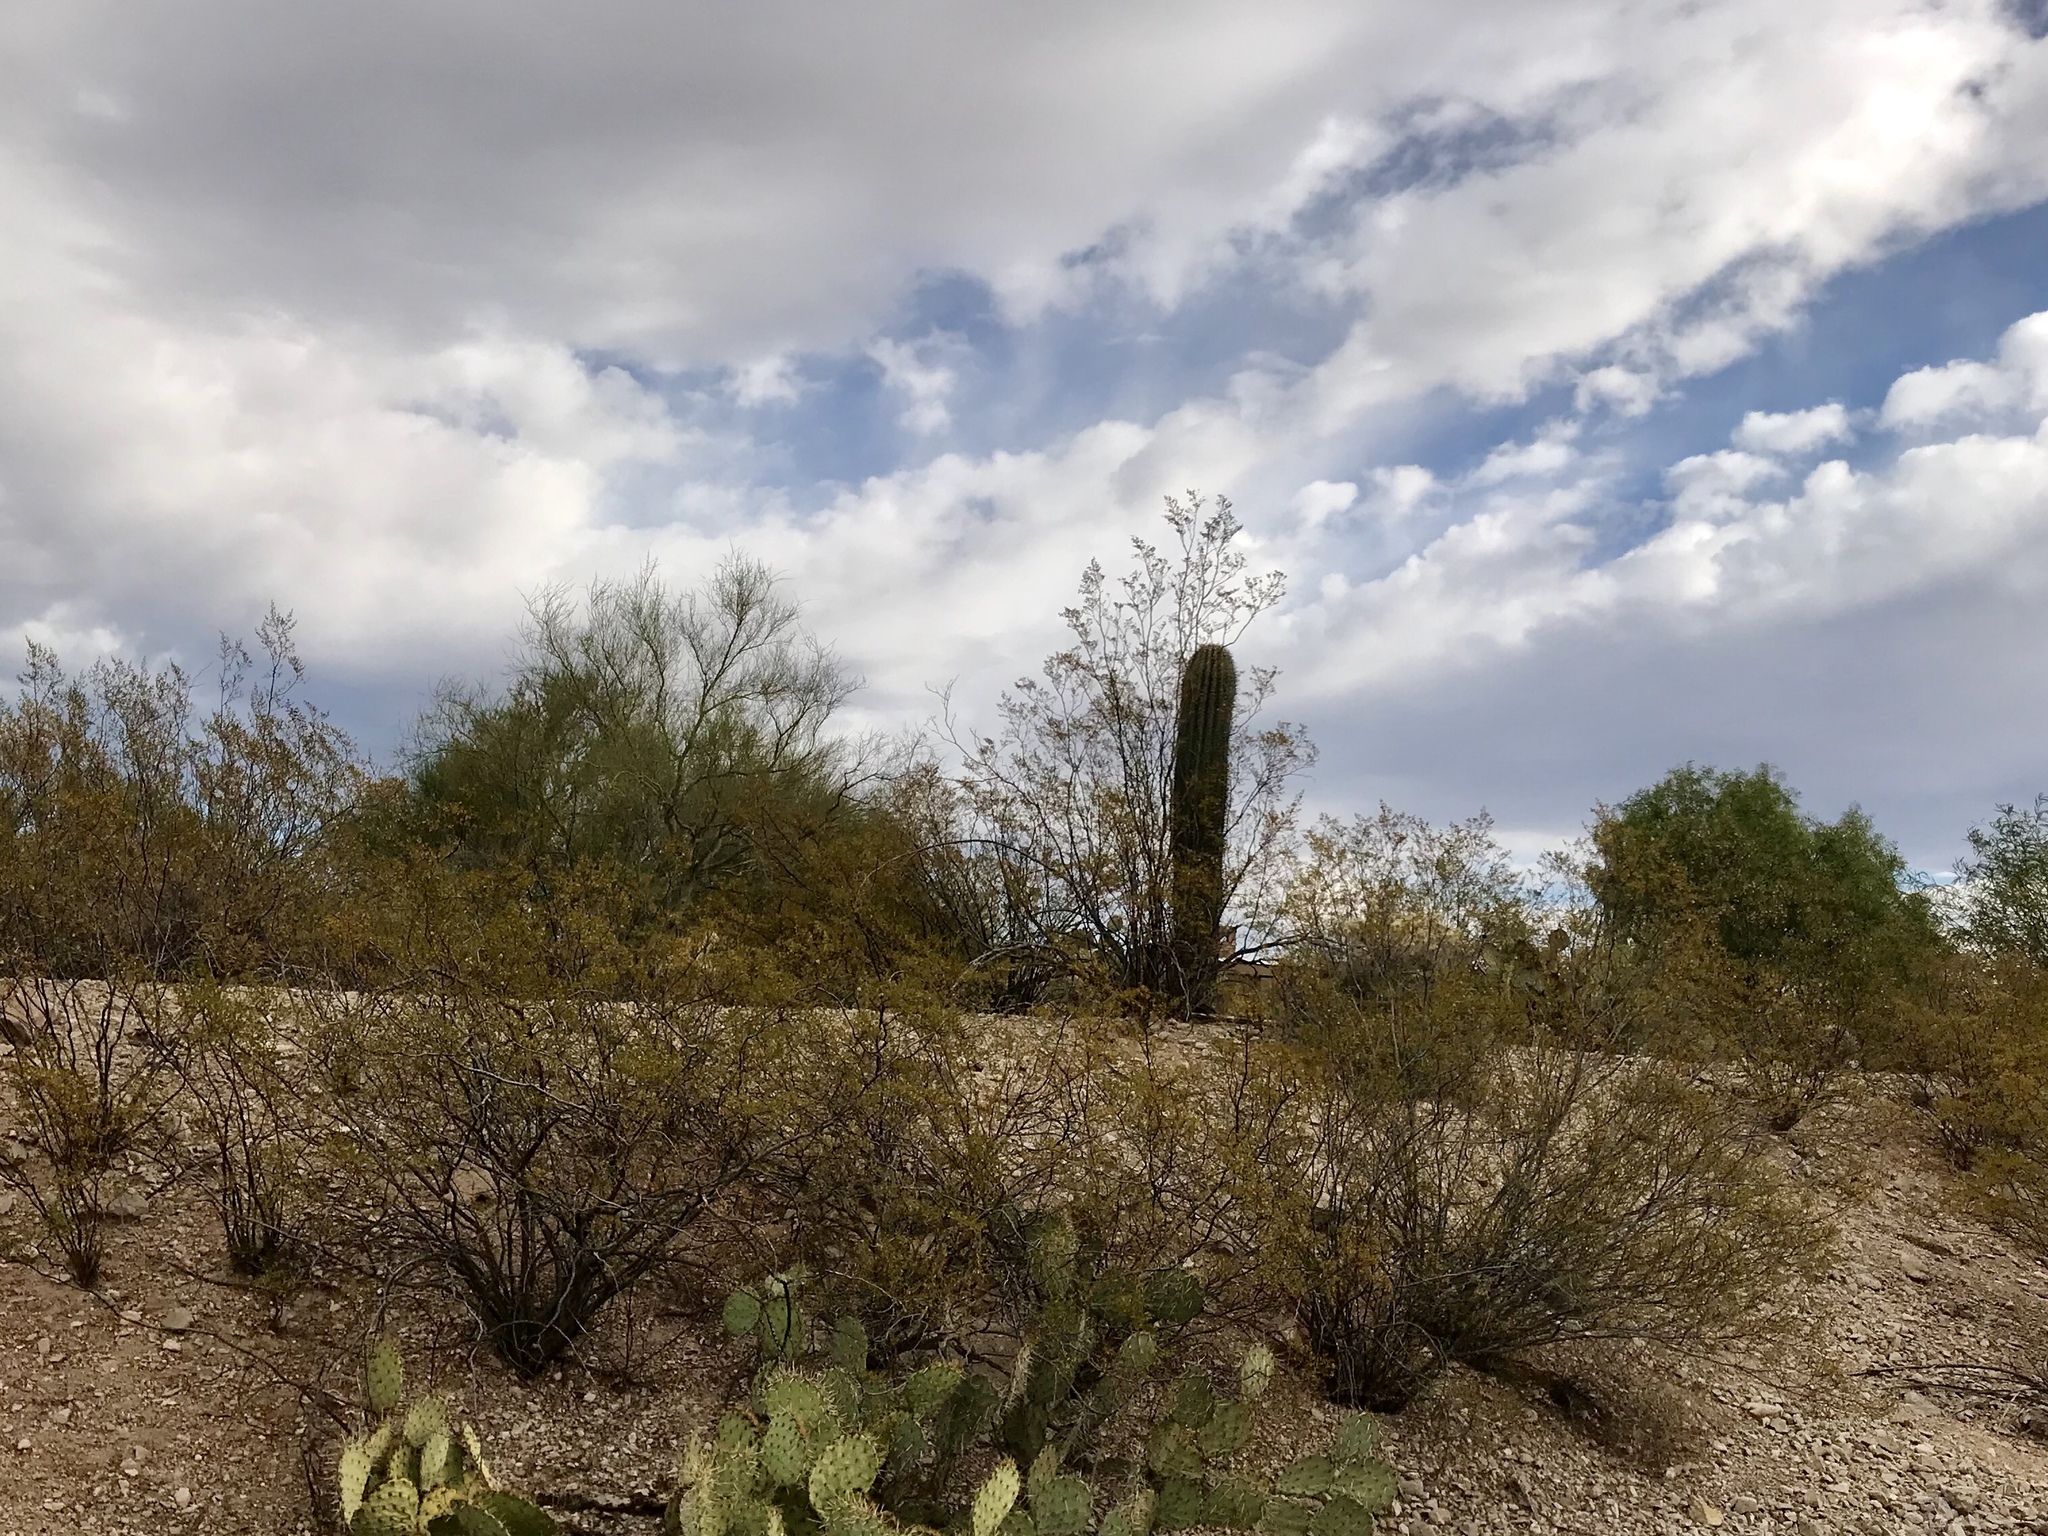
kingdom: Plantae
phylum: Tracheophyta
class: Magnoliopsida
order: Zygophyllales
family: Zygophyllaceae
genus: Larrea
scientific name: Larrea tridentata
